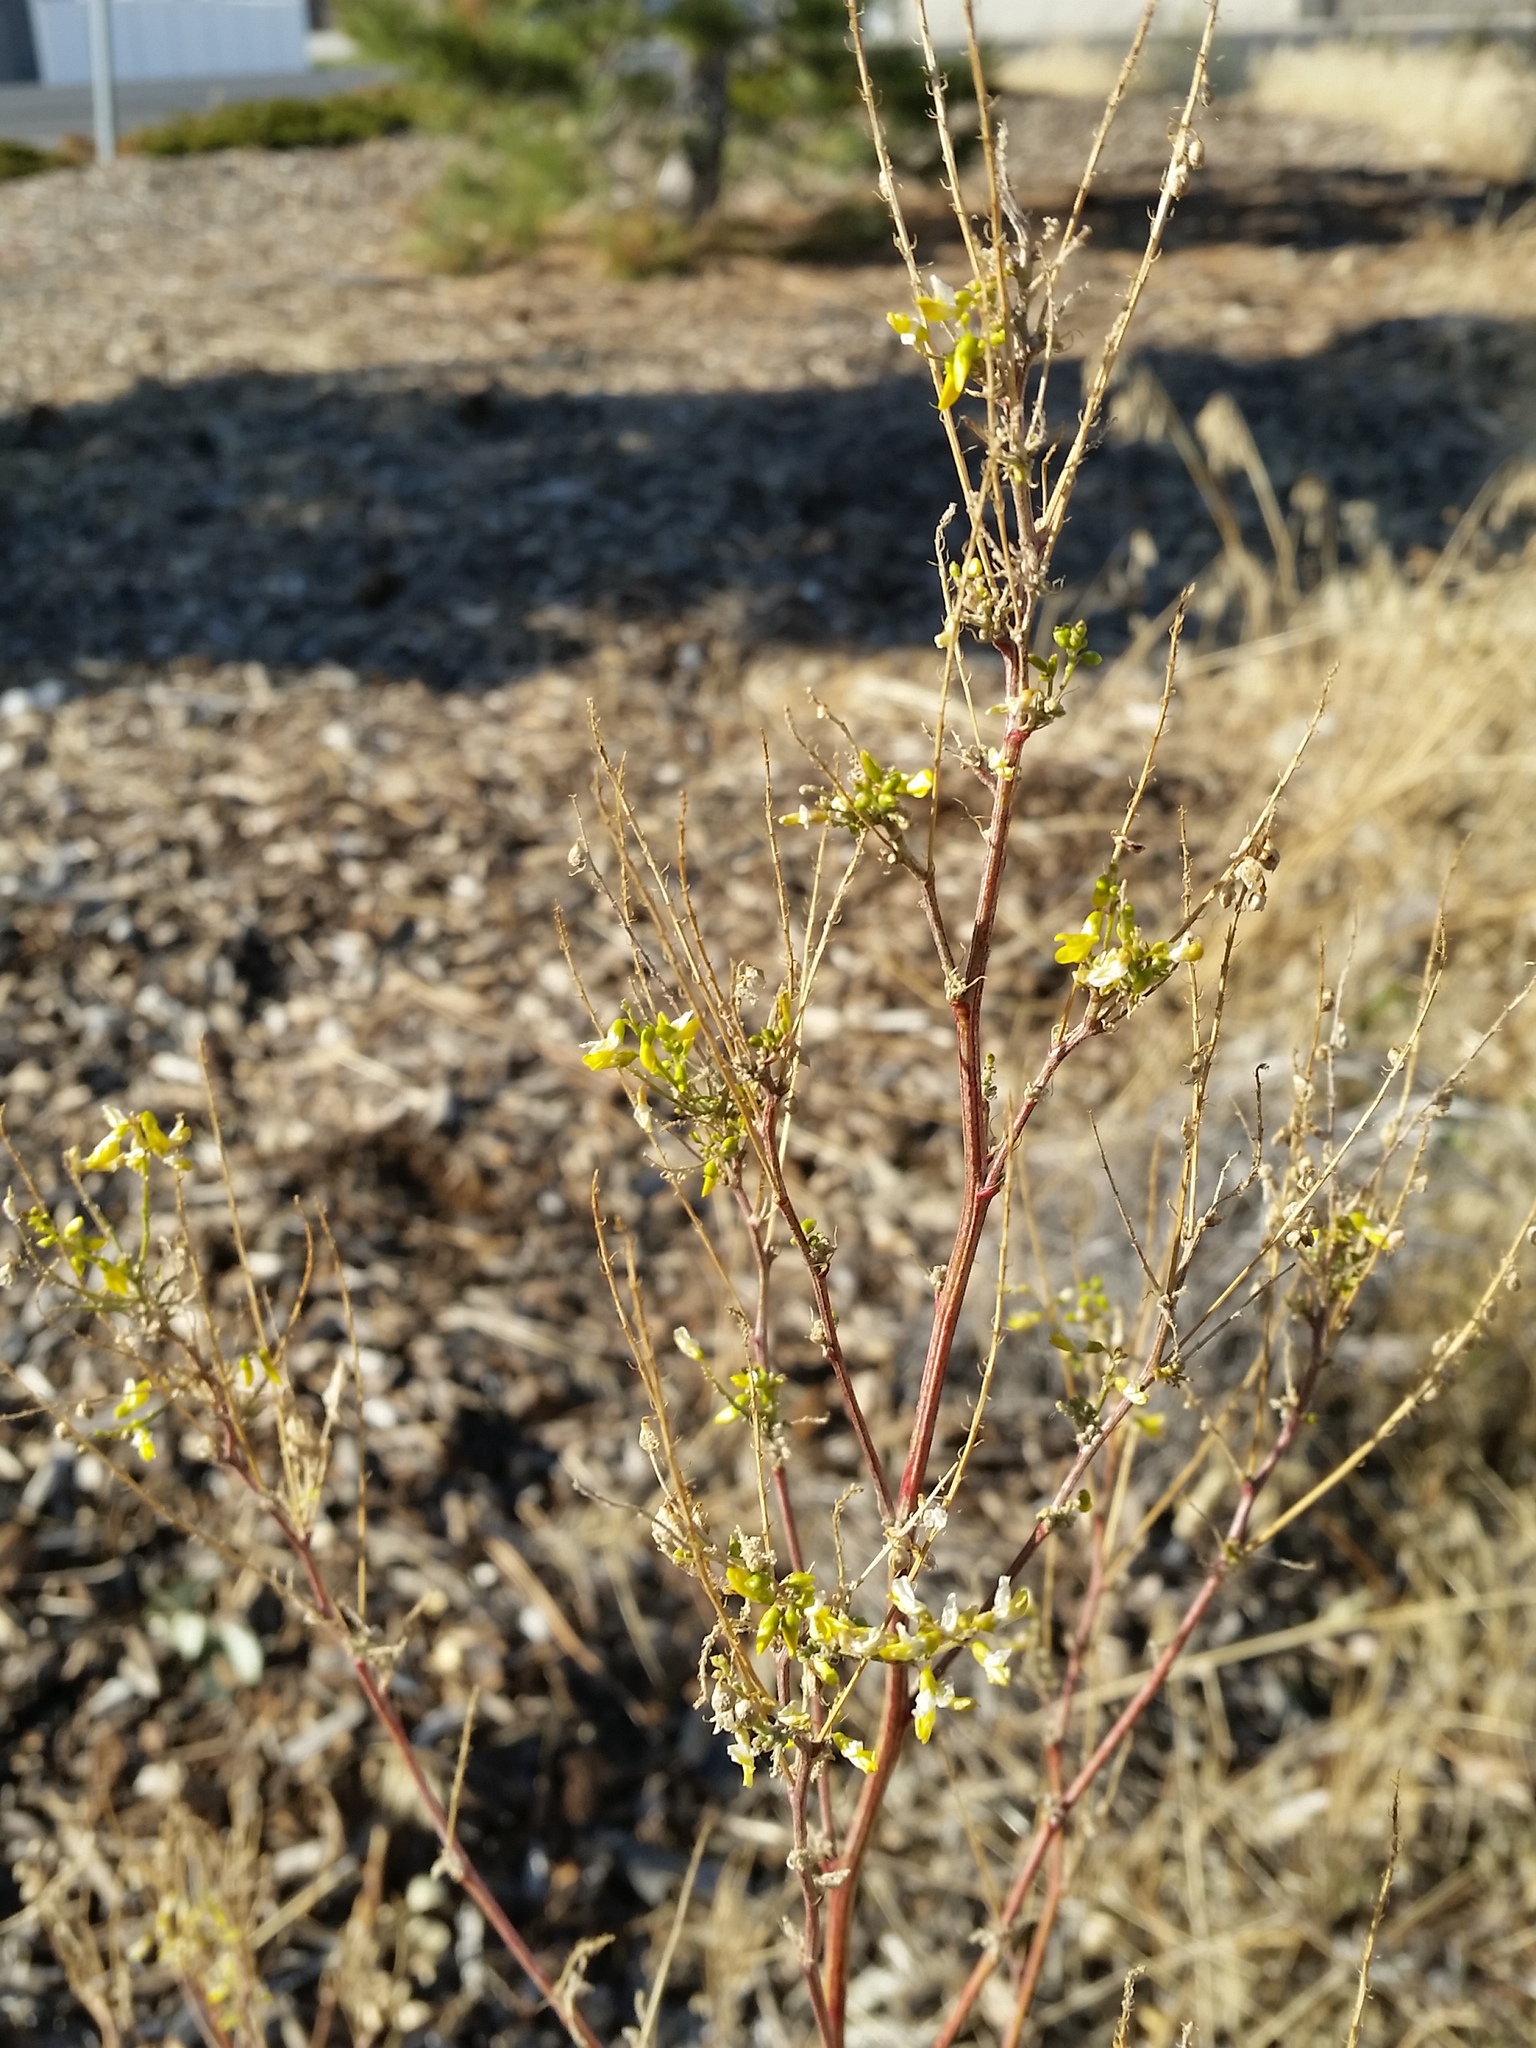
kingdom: Plantae
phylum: Tracheophyta
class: Magnoliopsida
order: Fabales
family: Fabaceae
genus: Melilotus
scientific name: Melilotus officinalis
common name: Sweetclover
